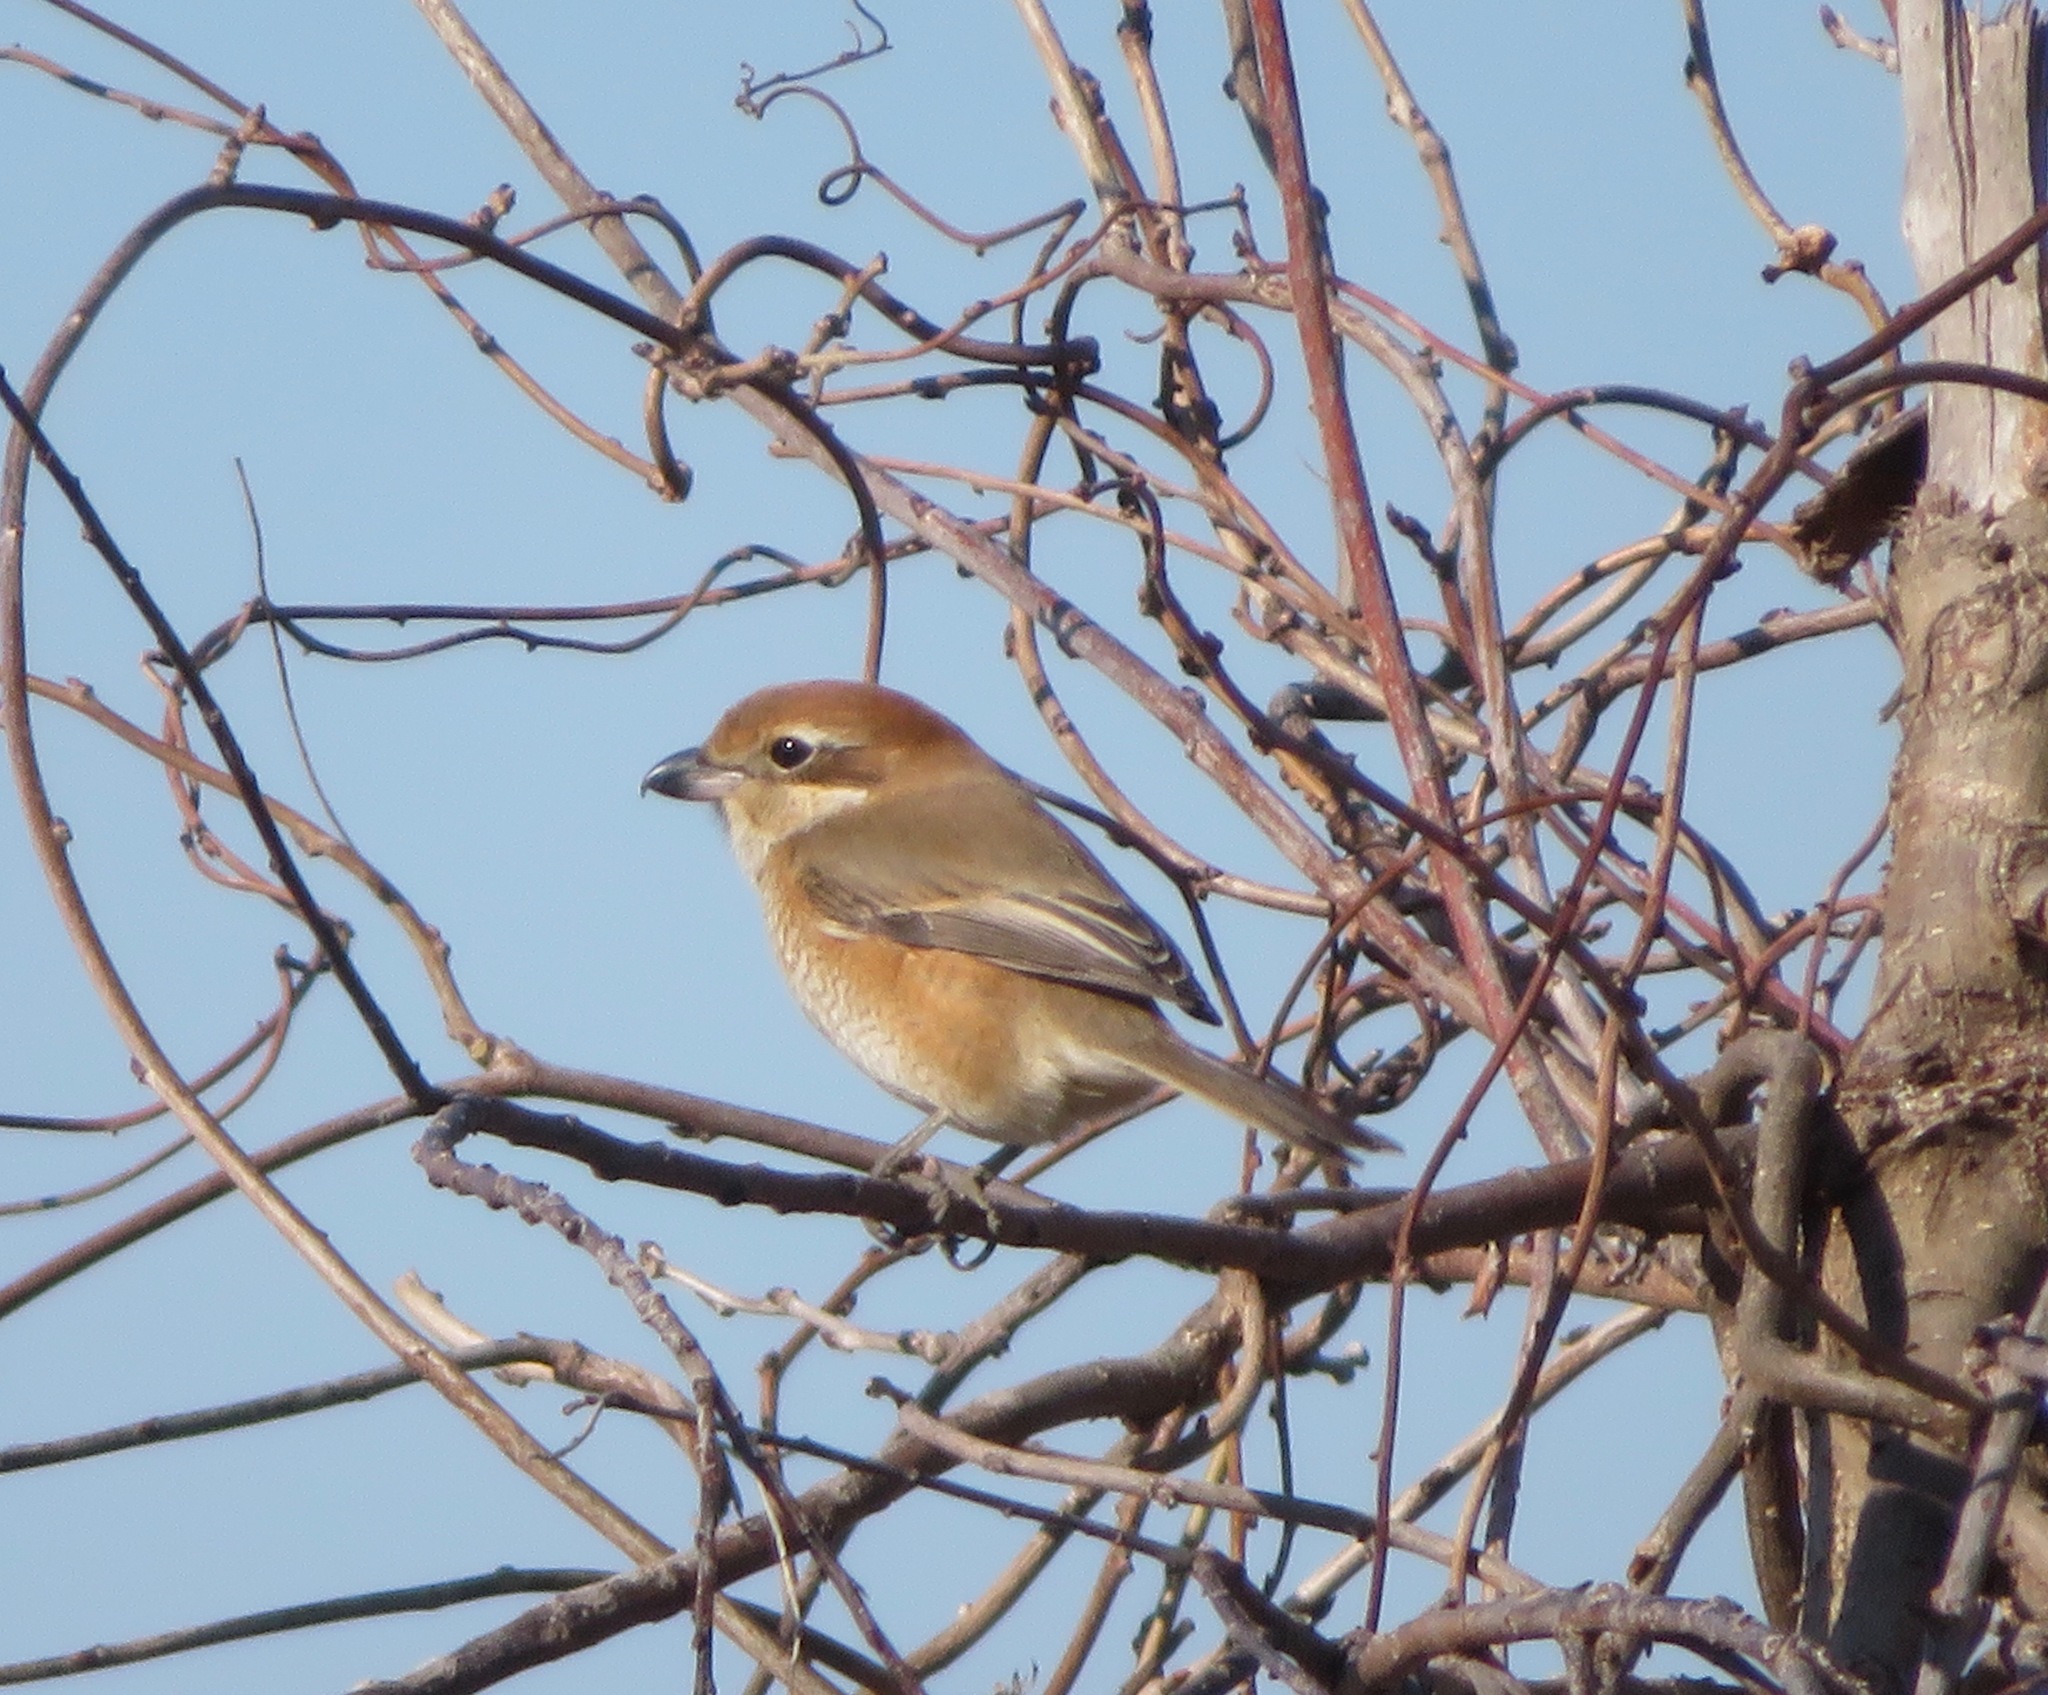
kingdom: Animalia
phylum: Chordata
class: Aves
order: Passeriformes
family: Laniidae
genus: Lanius
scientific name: Lanius bucephalus
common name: Bull-headed shrike
